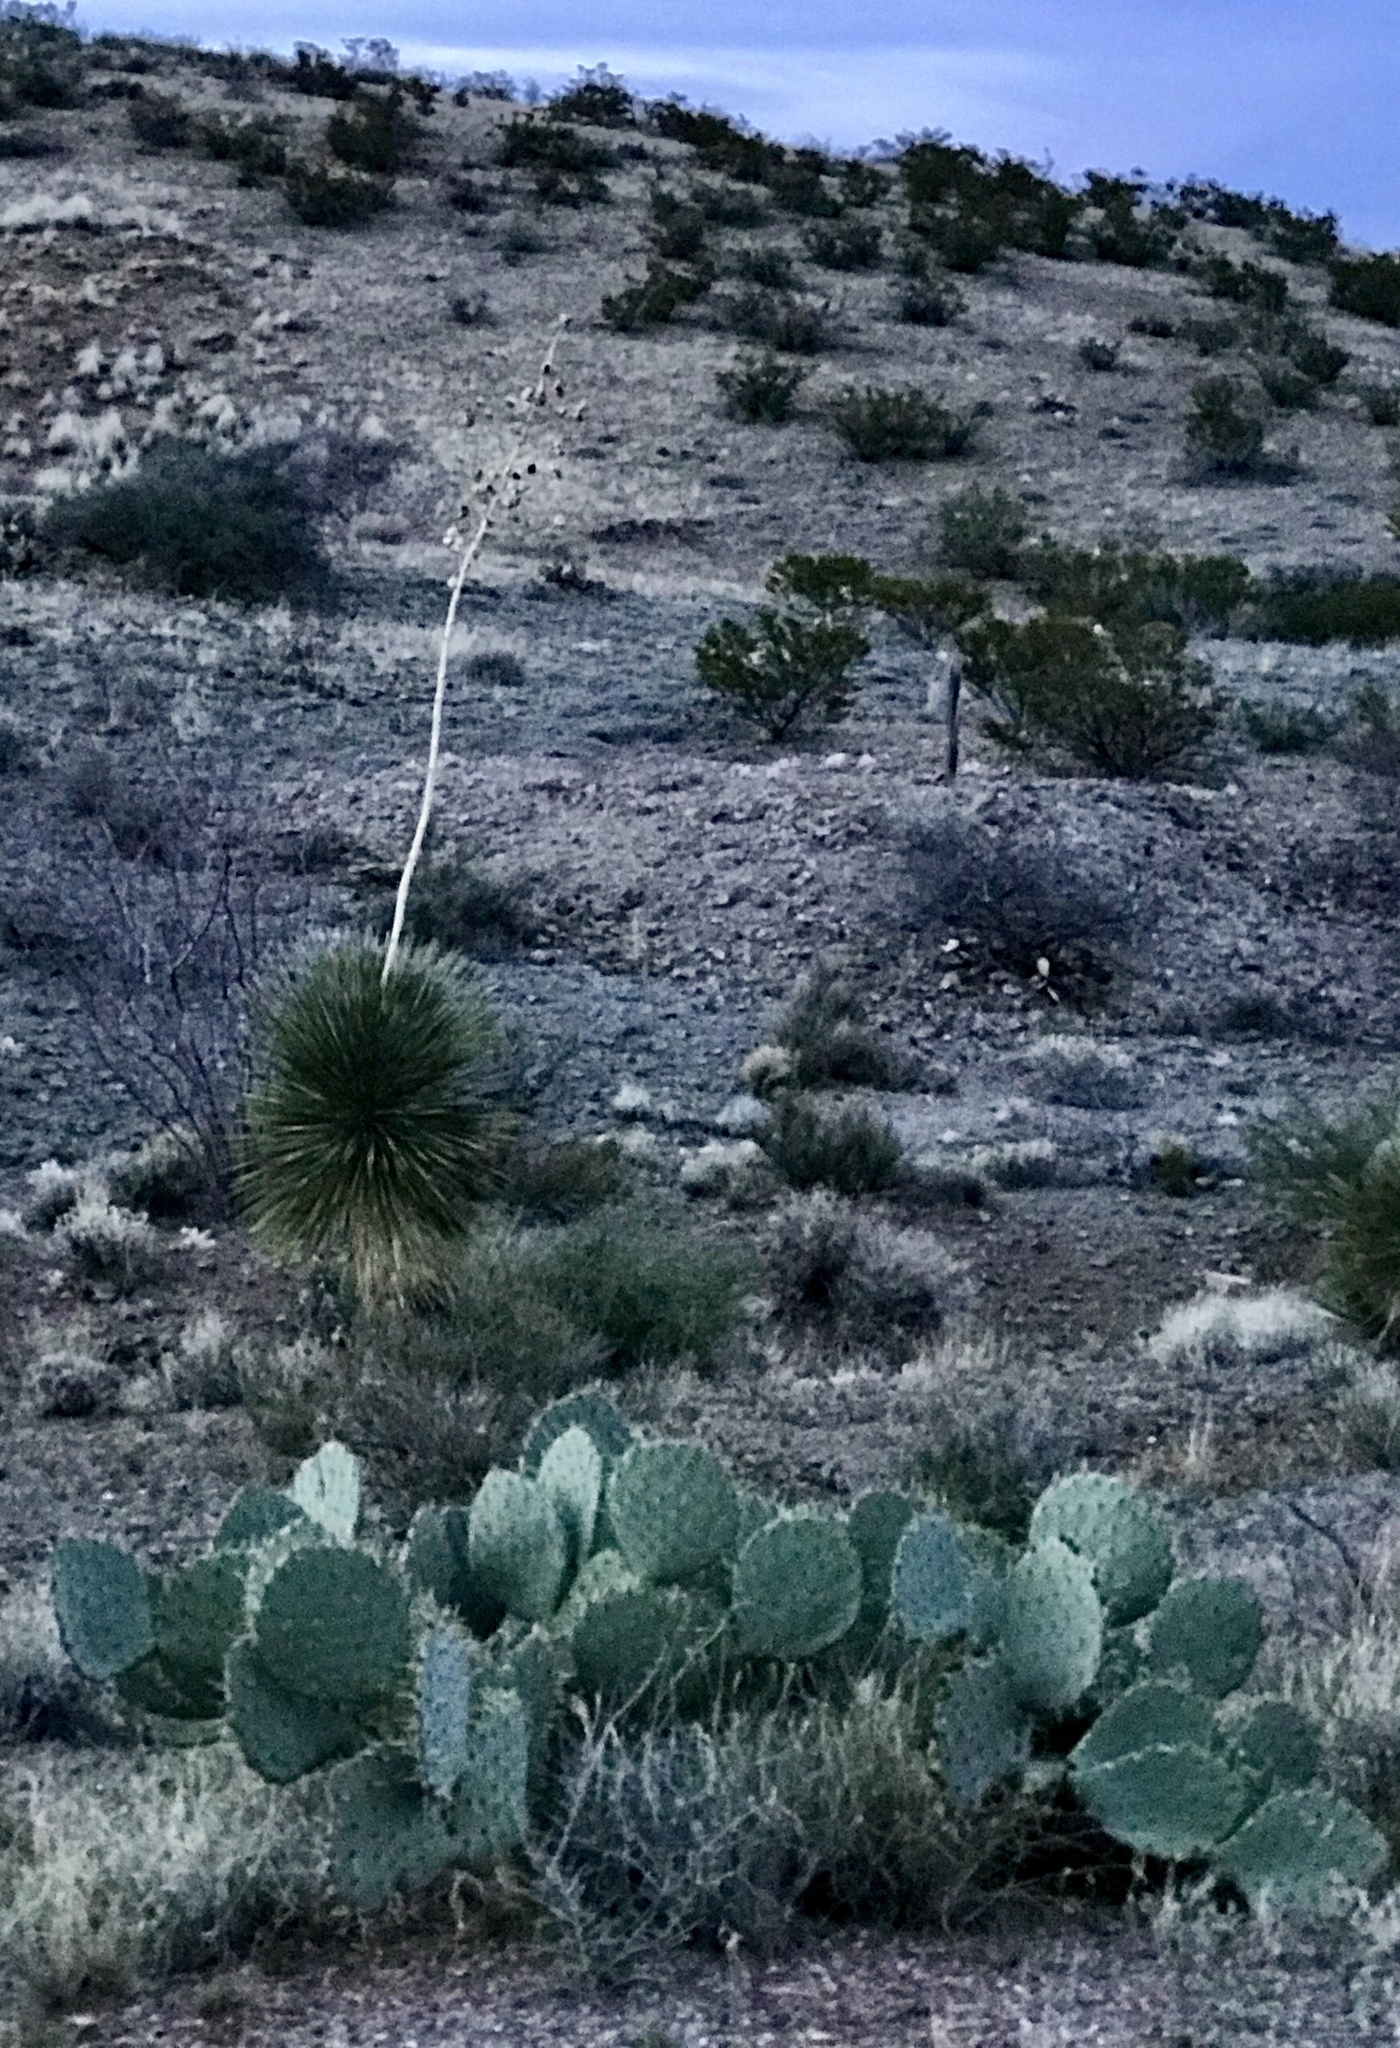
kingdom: Plantae
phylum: Tracheophyta
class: Liliopsida
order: Asparagales
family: Asparagaceae
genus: Yucca
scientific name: Yucca elata
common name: Palmella
